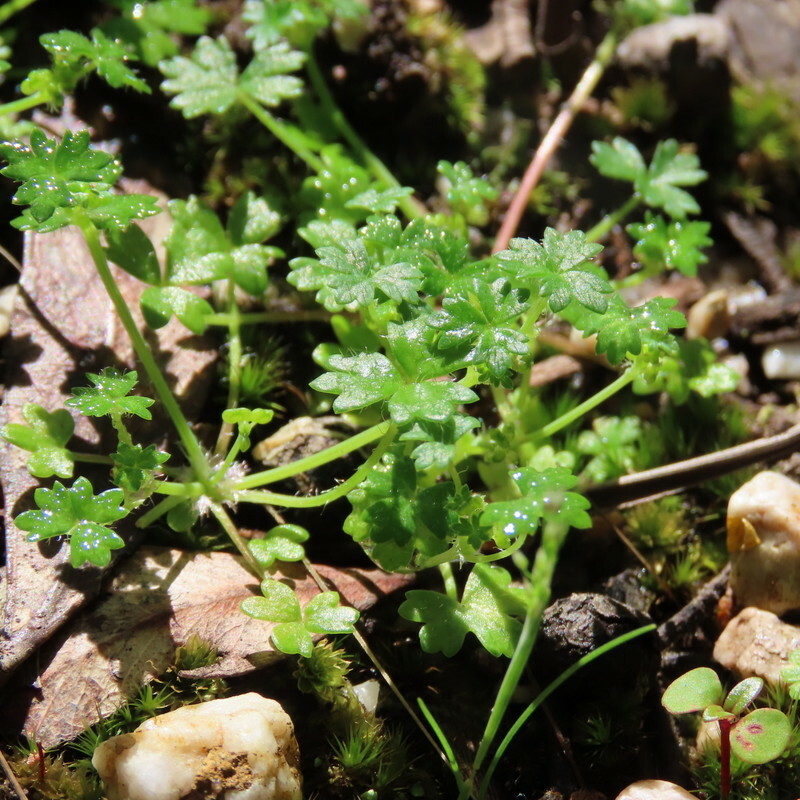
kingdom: Plantae
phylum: Tracheophyta
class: Magnoliopsida
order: Apiales
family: Araliaceae
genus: Hydrocotyle
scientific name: Hydrocotyle foveolata
